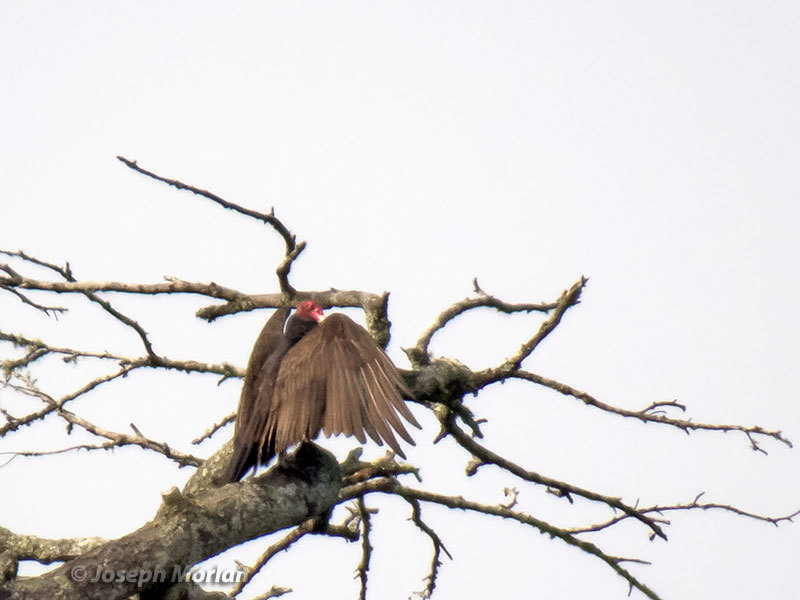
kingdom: Animalia
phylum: Chordata
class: Aves
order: Accipitriformes
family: Cathartidae
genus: Cathartes
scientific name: Cathartes aura
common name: Turkey vulture
